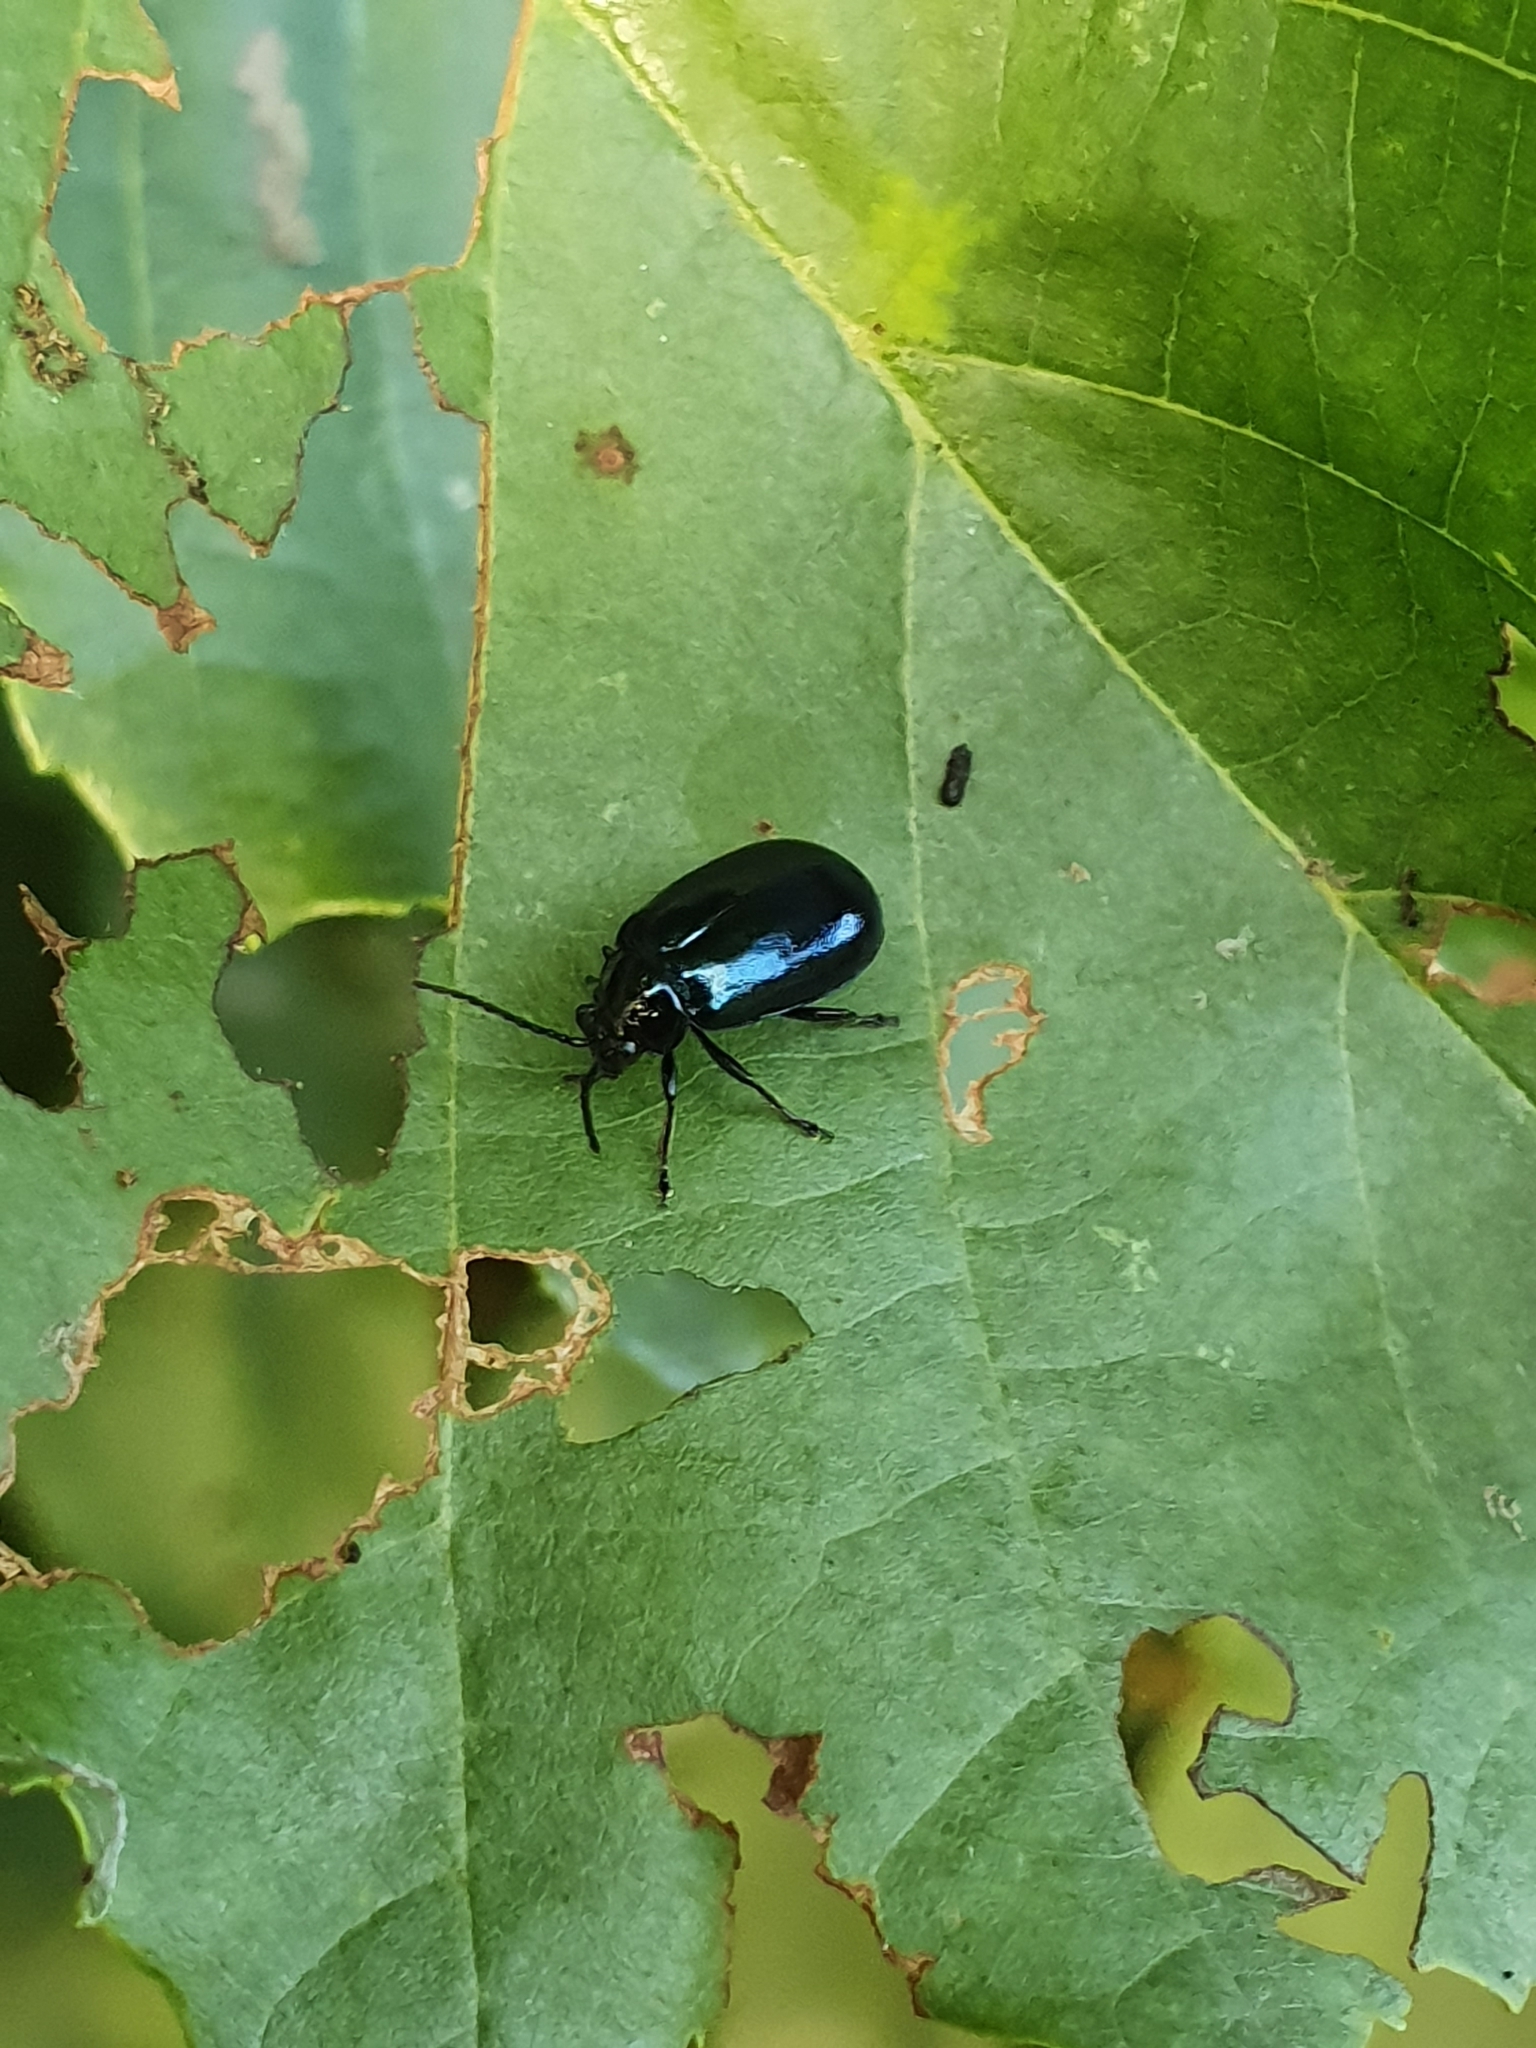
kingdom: Animalia
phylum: Arthropoda
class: Insecta
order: Coleoptera
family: Chrysomelidae
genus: Agelastica
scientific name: Agelastica alni
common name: Alder leaf beetle
